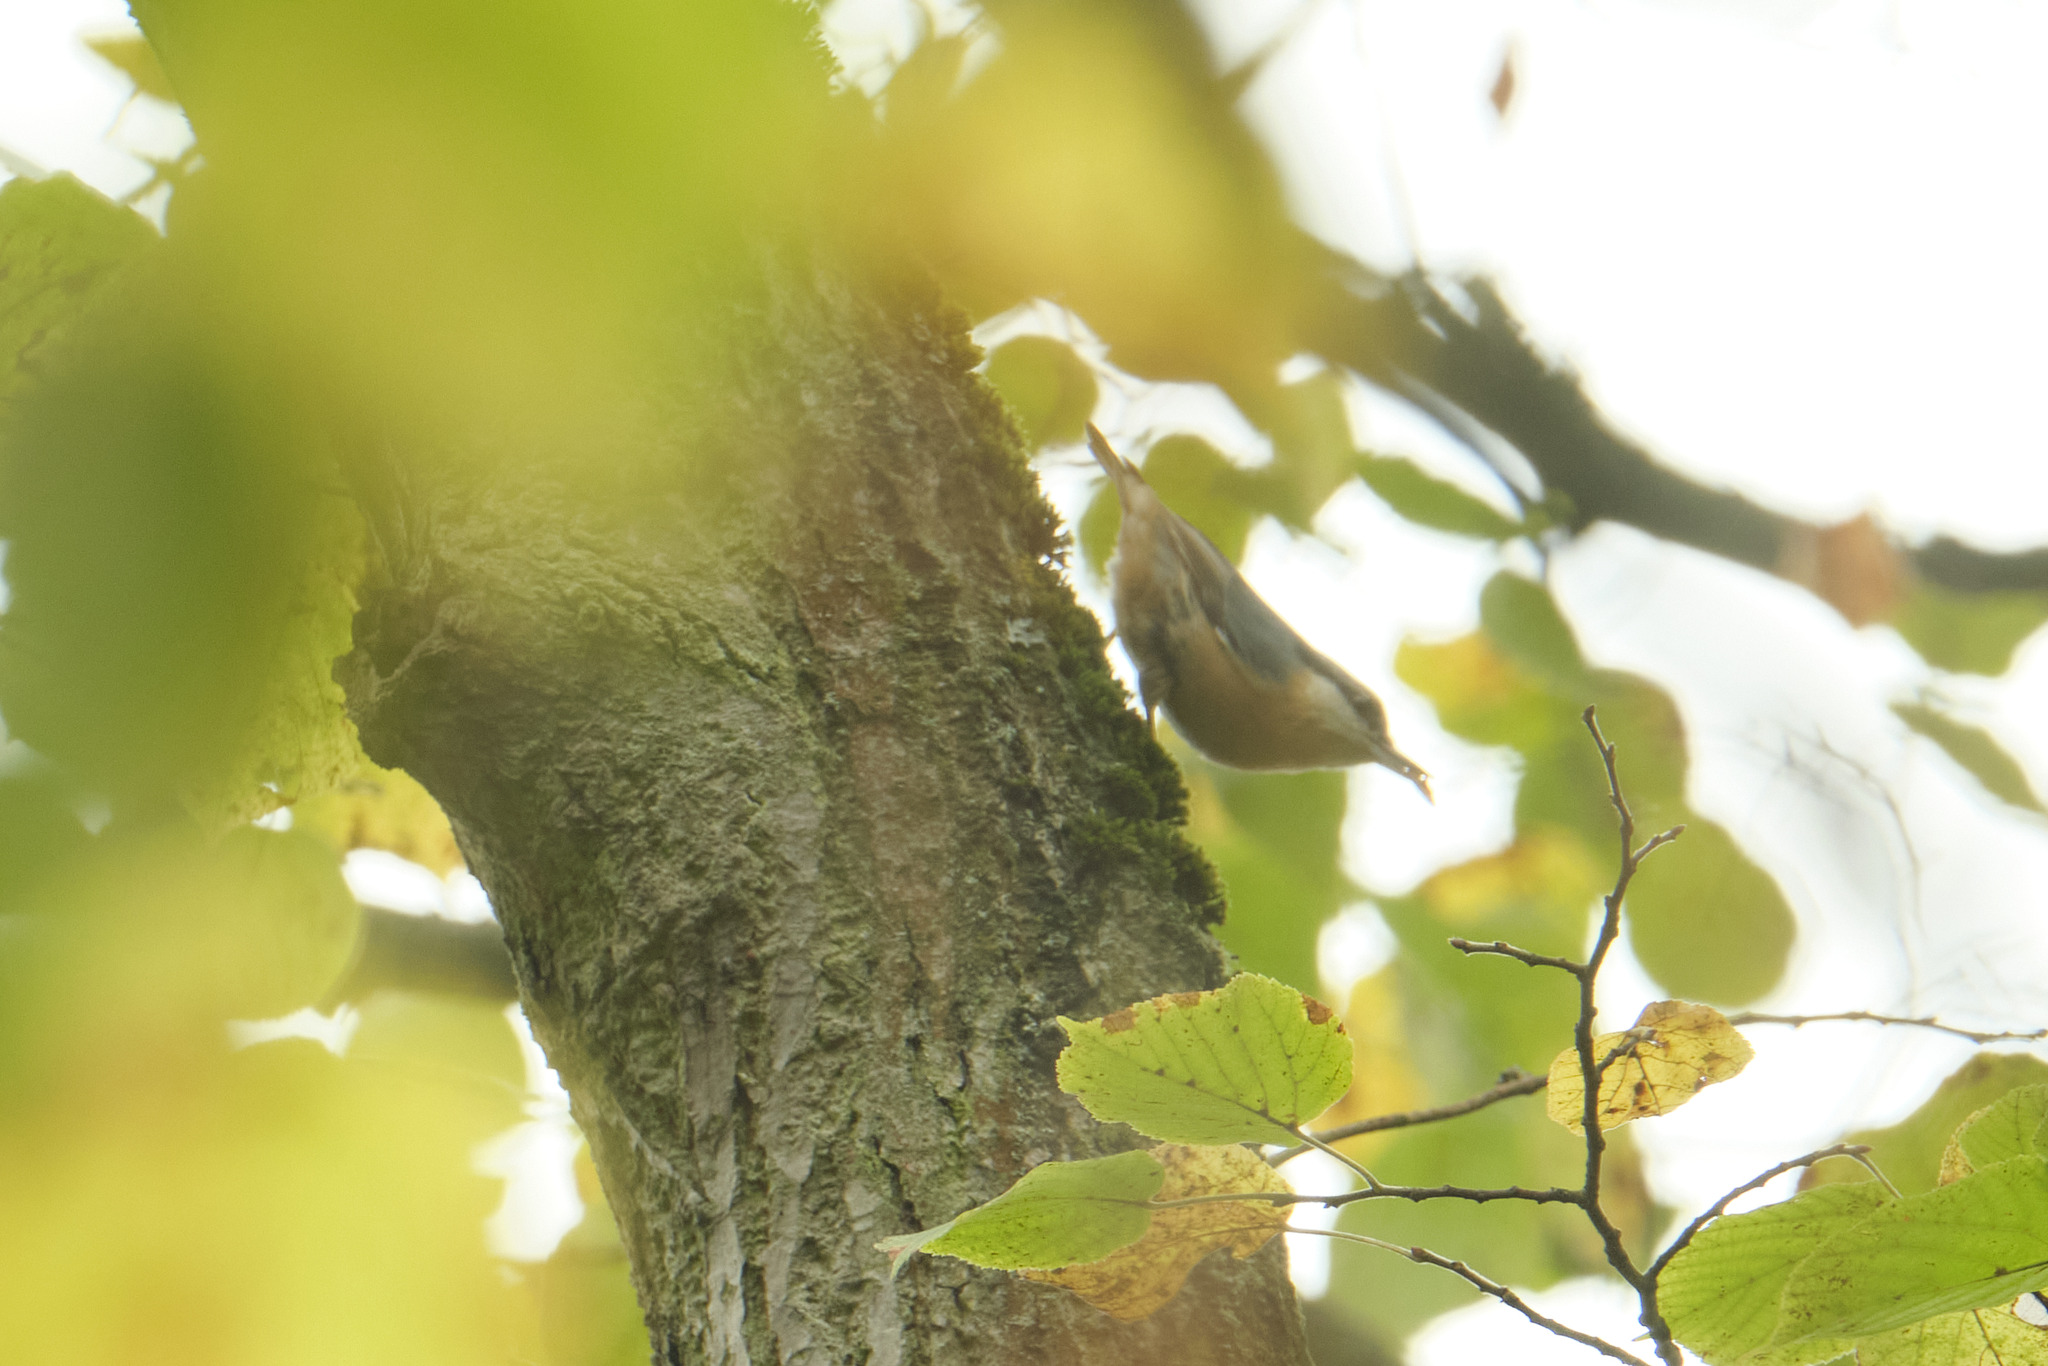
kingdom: Animalia
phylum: Chordata
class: Aves
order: Passeriformes
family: Sittidae
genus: Sitta
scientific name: Sitta europaea
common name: Eurasian nuthatch
